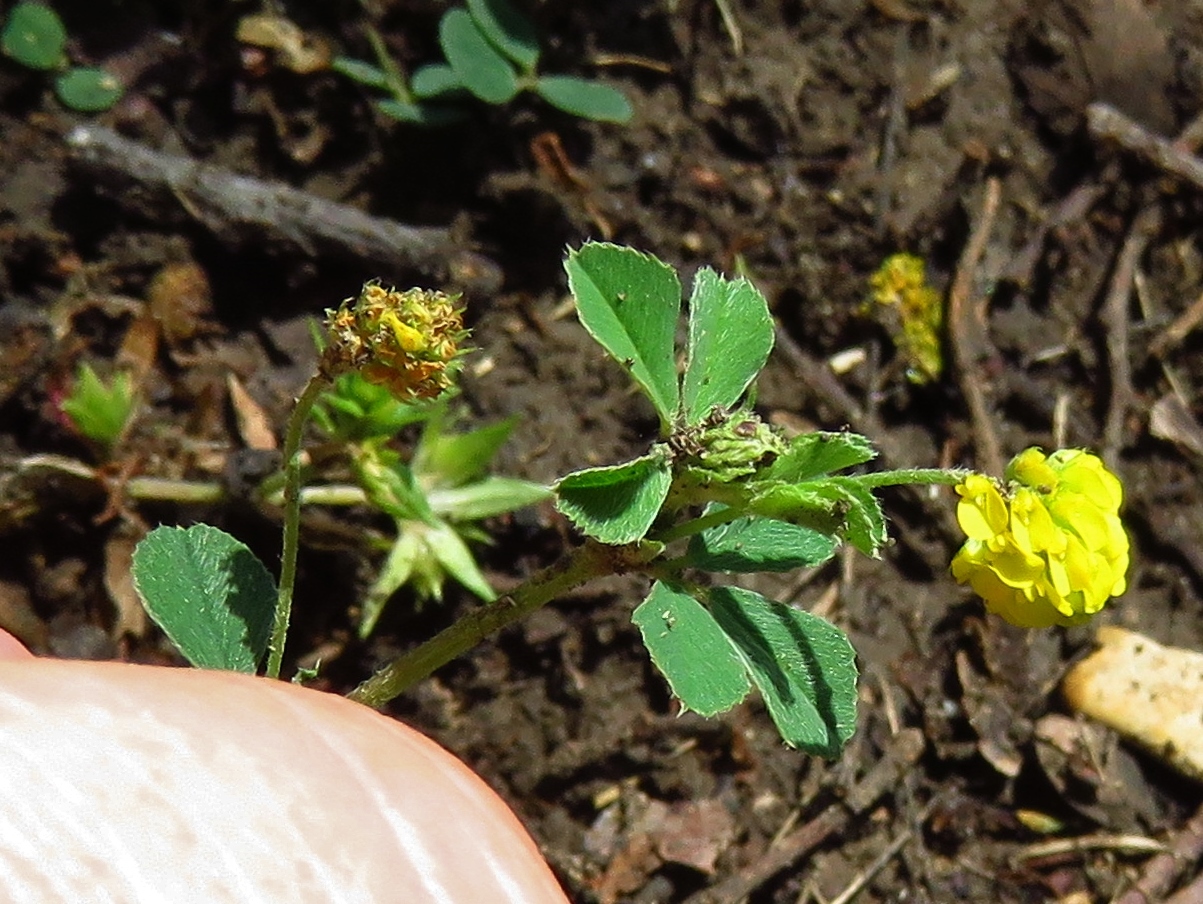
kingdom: Plantae
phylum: Tracheophyta
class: Magnoliopsida
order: Fabales
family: Fabaceae
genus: Medicago
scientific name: Medicago lupulina
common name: Black medick
